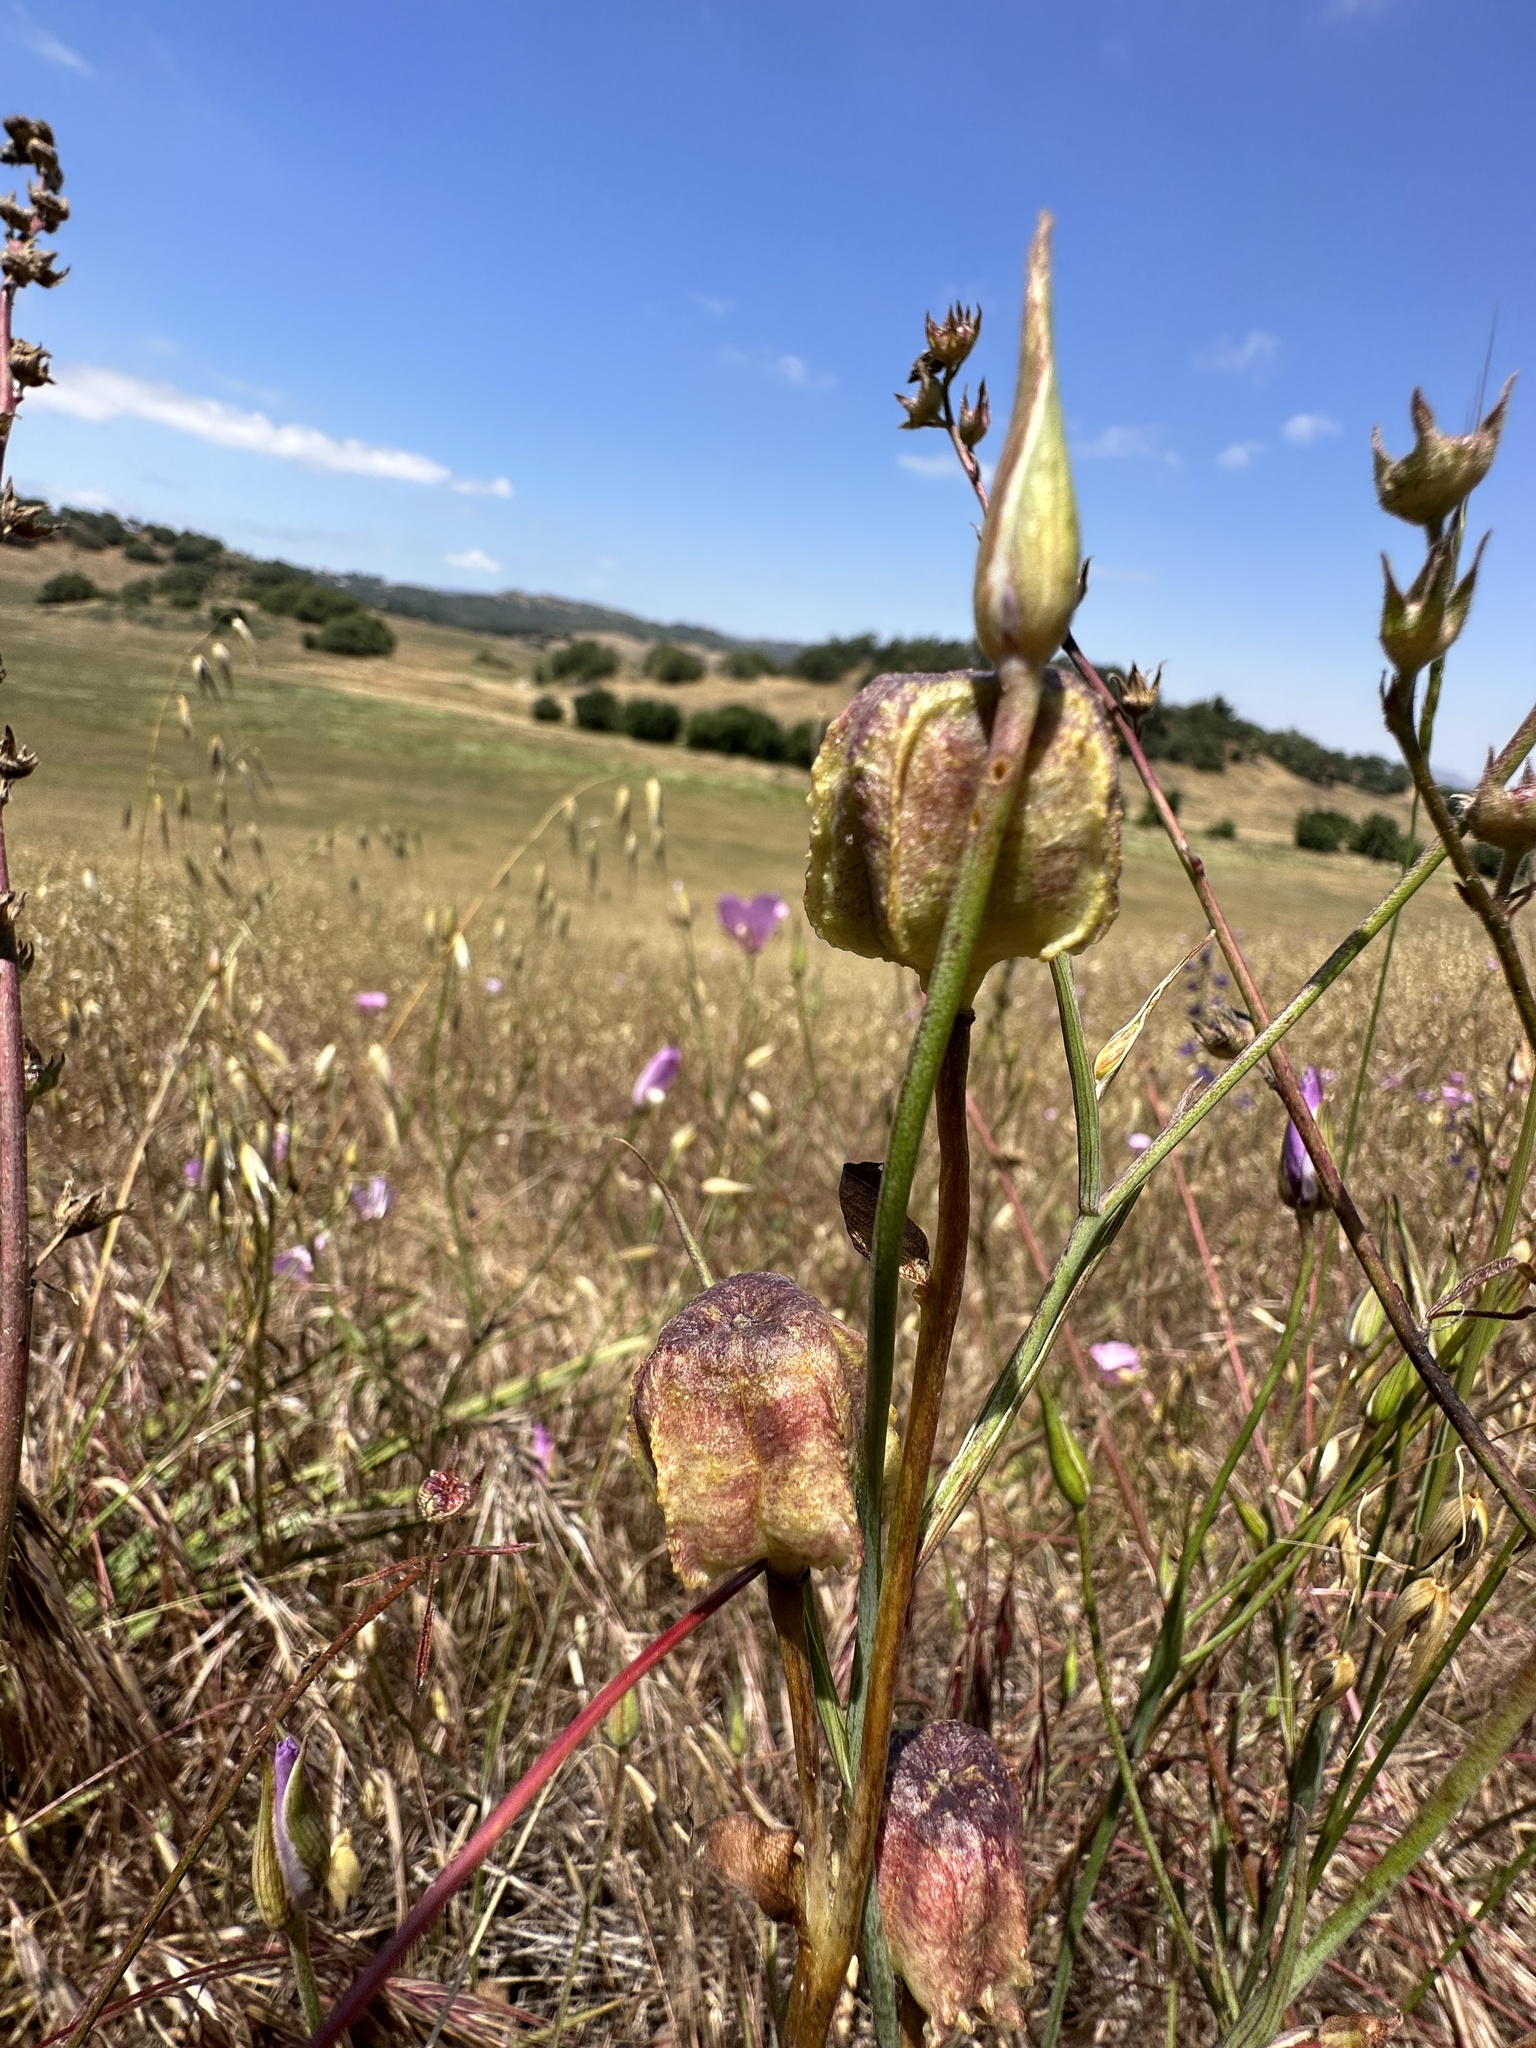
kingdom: Plantae
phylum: Tracheophyta
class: Liliopsida
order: Liliales
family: Liliaceae
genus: Fritillaria
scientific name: Fritillaria biflora
